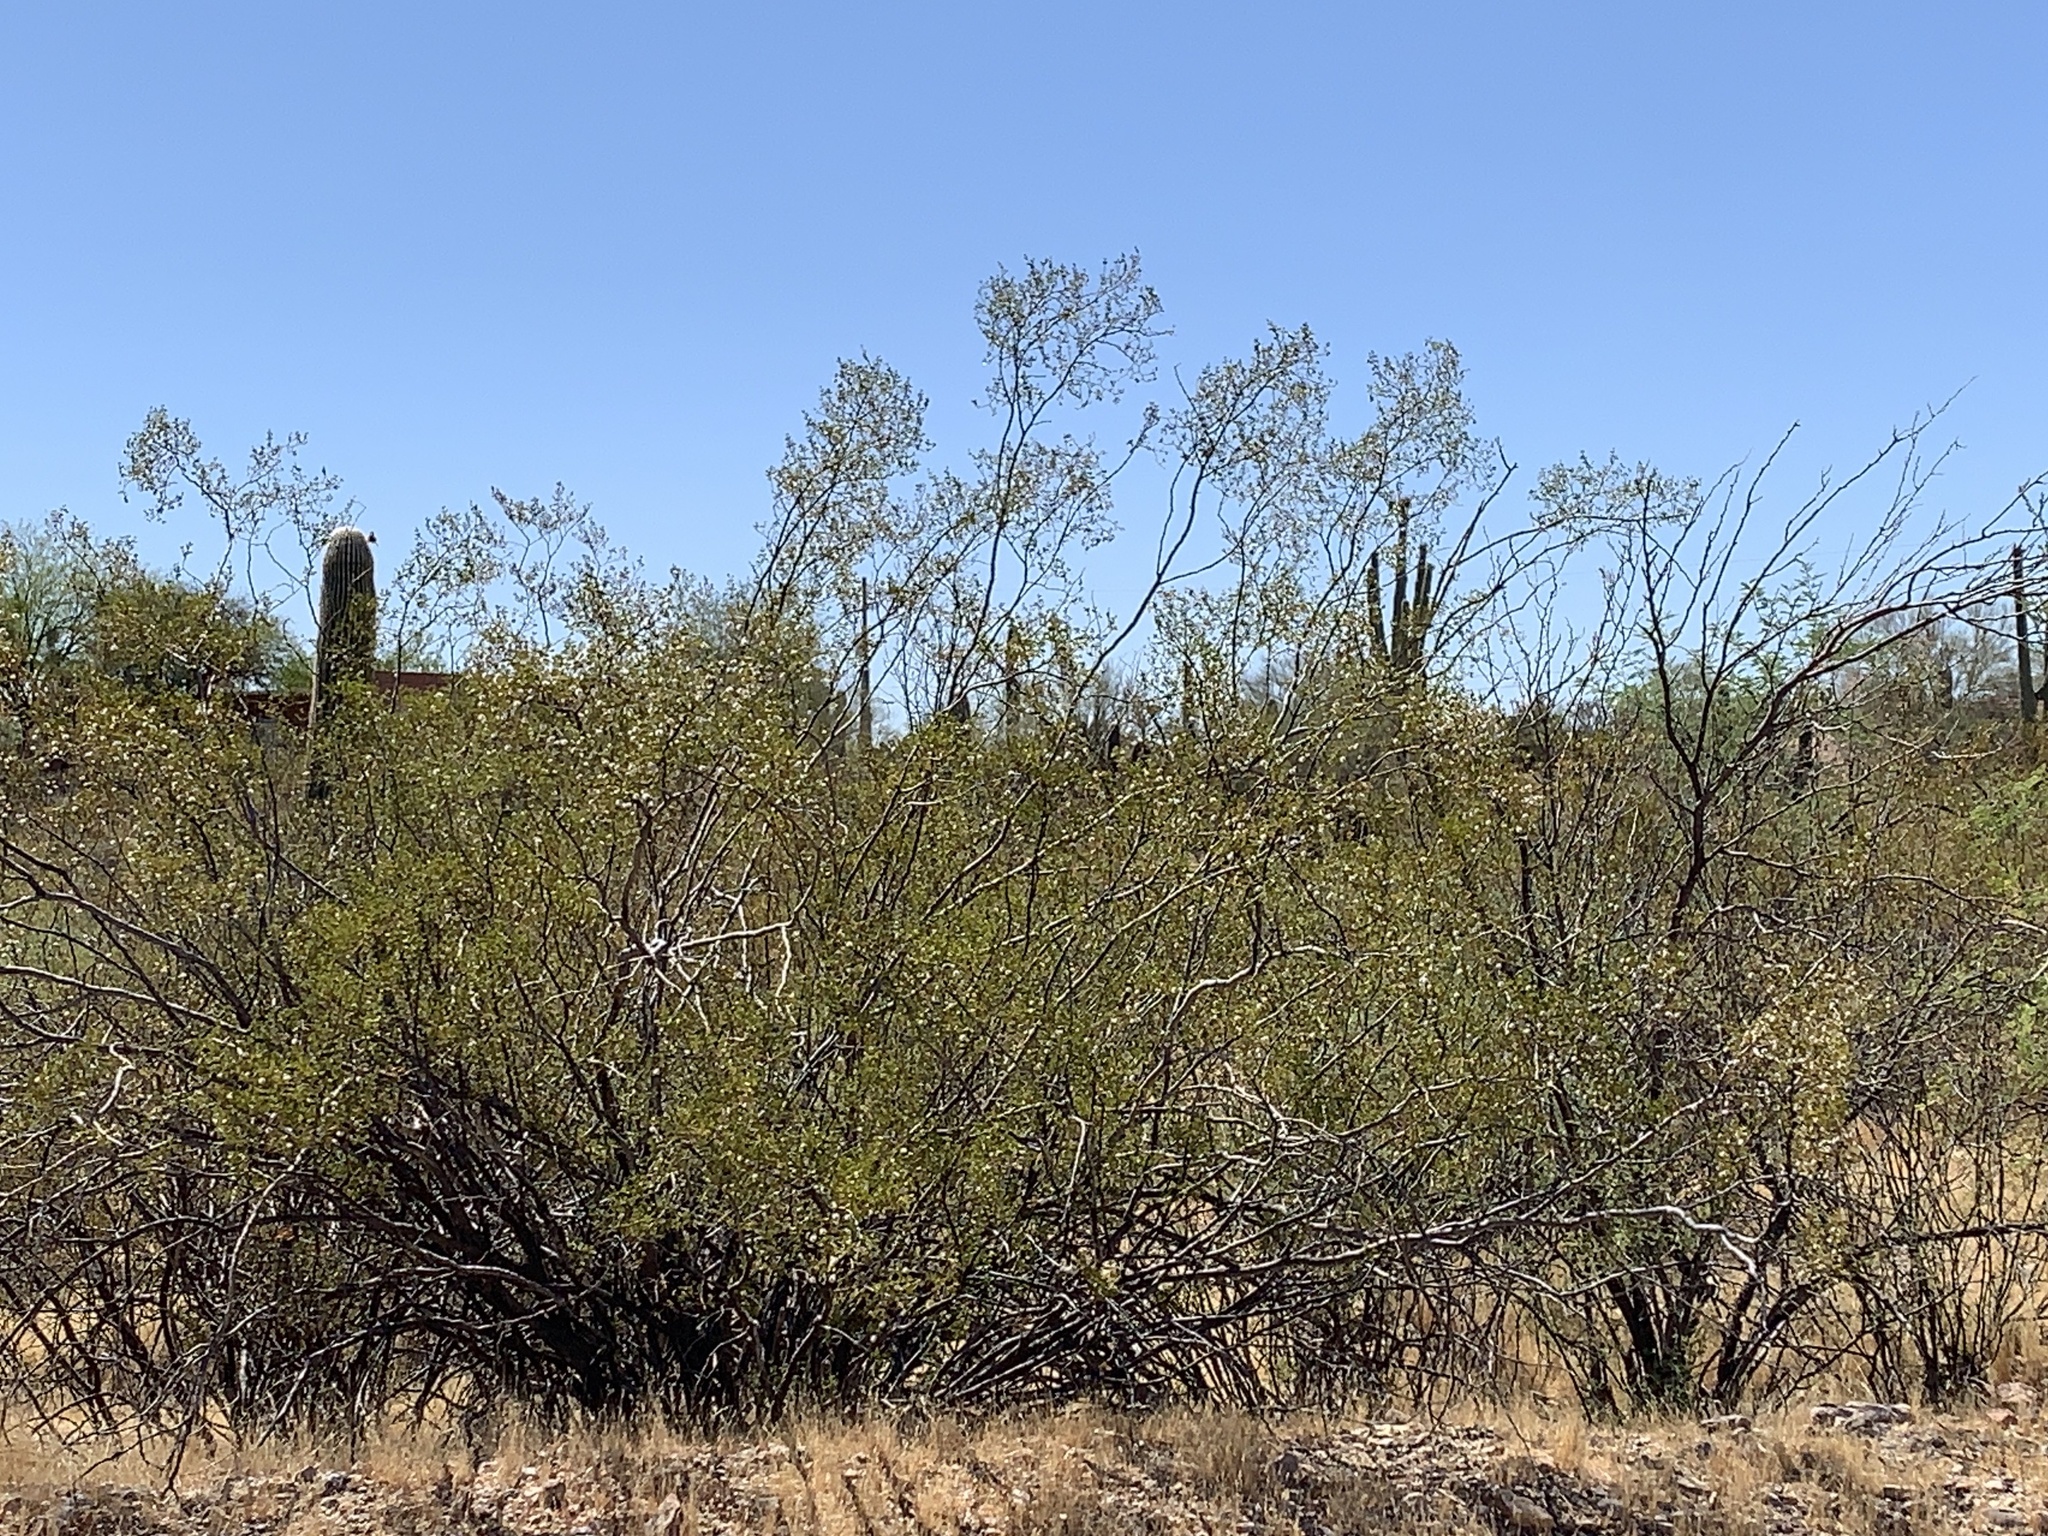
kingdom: Plantae
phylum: Tracheophyta
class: Magnoliopsida
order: Zygophyllales
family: Zygophyllaceae
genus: Larrea
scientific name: Larrea tridentata
